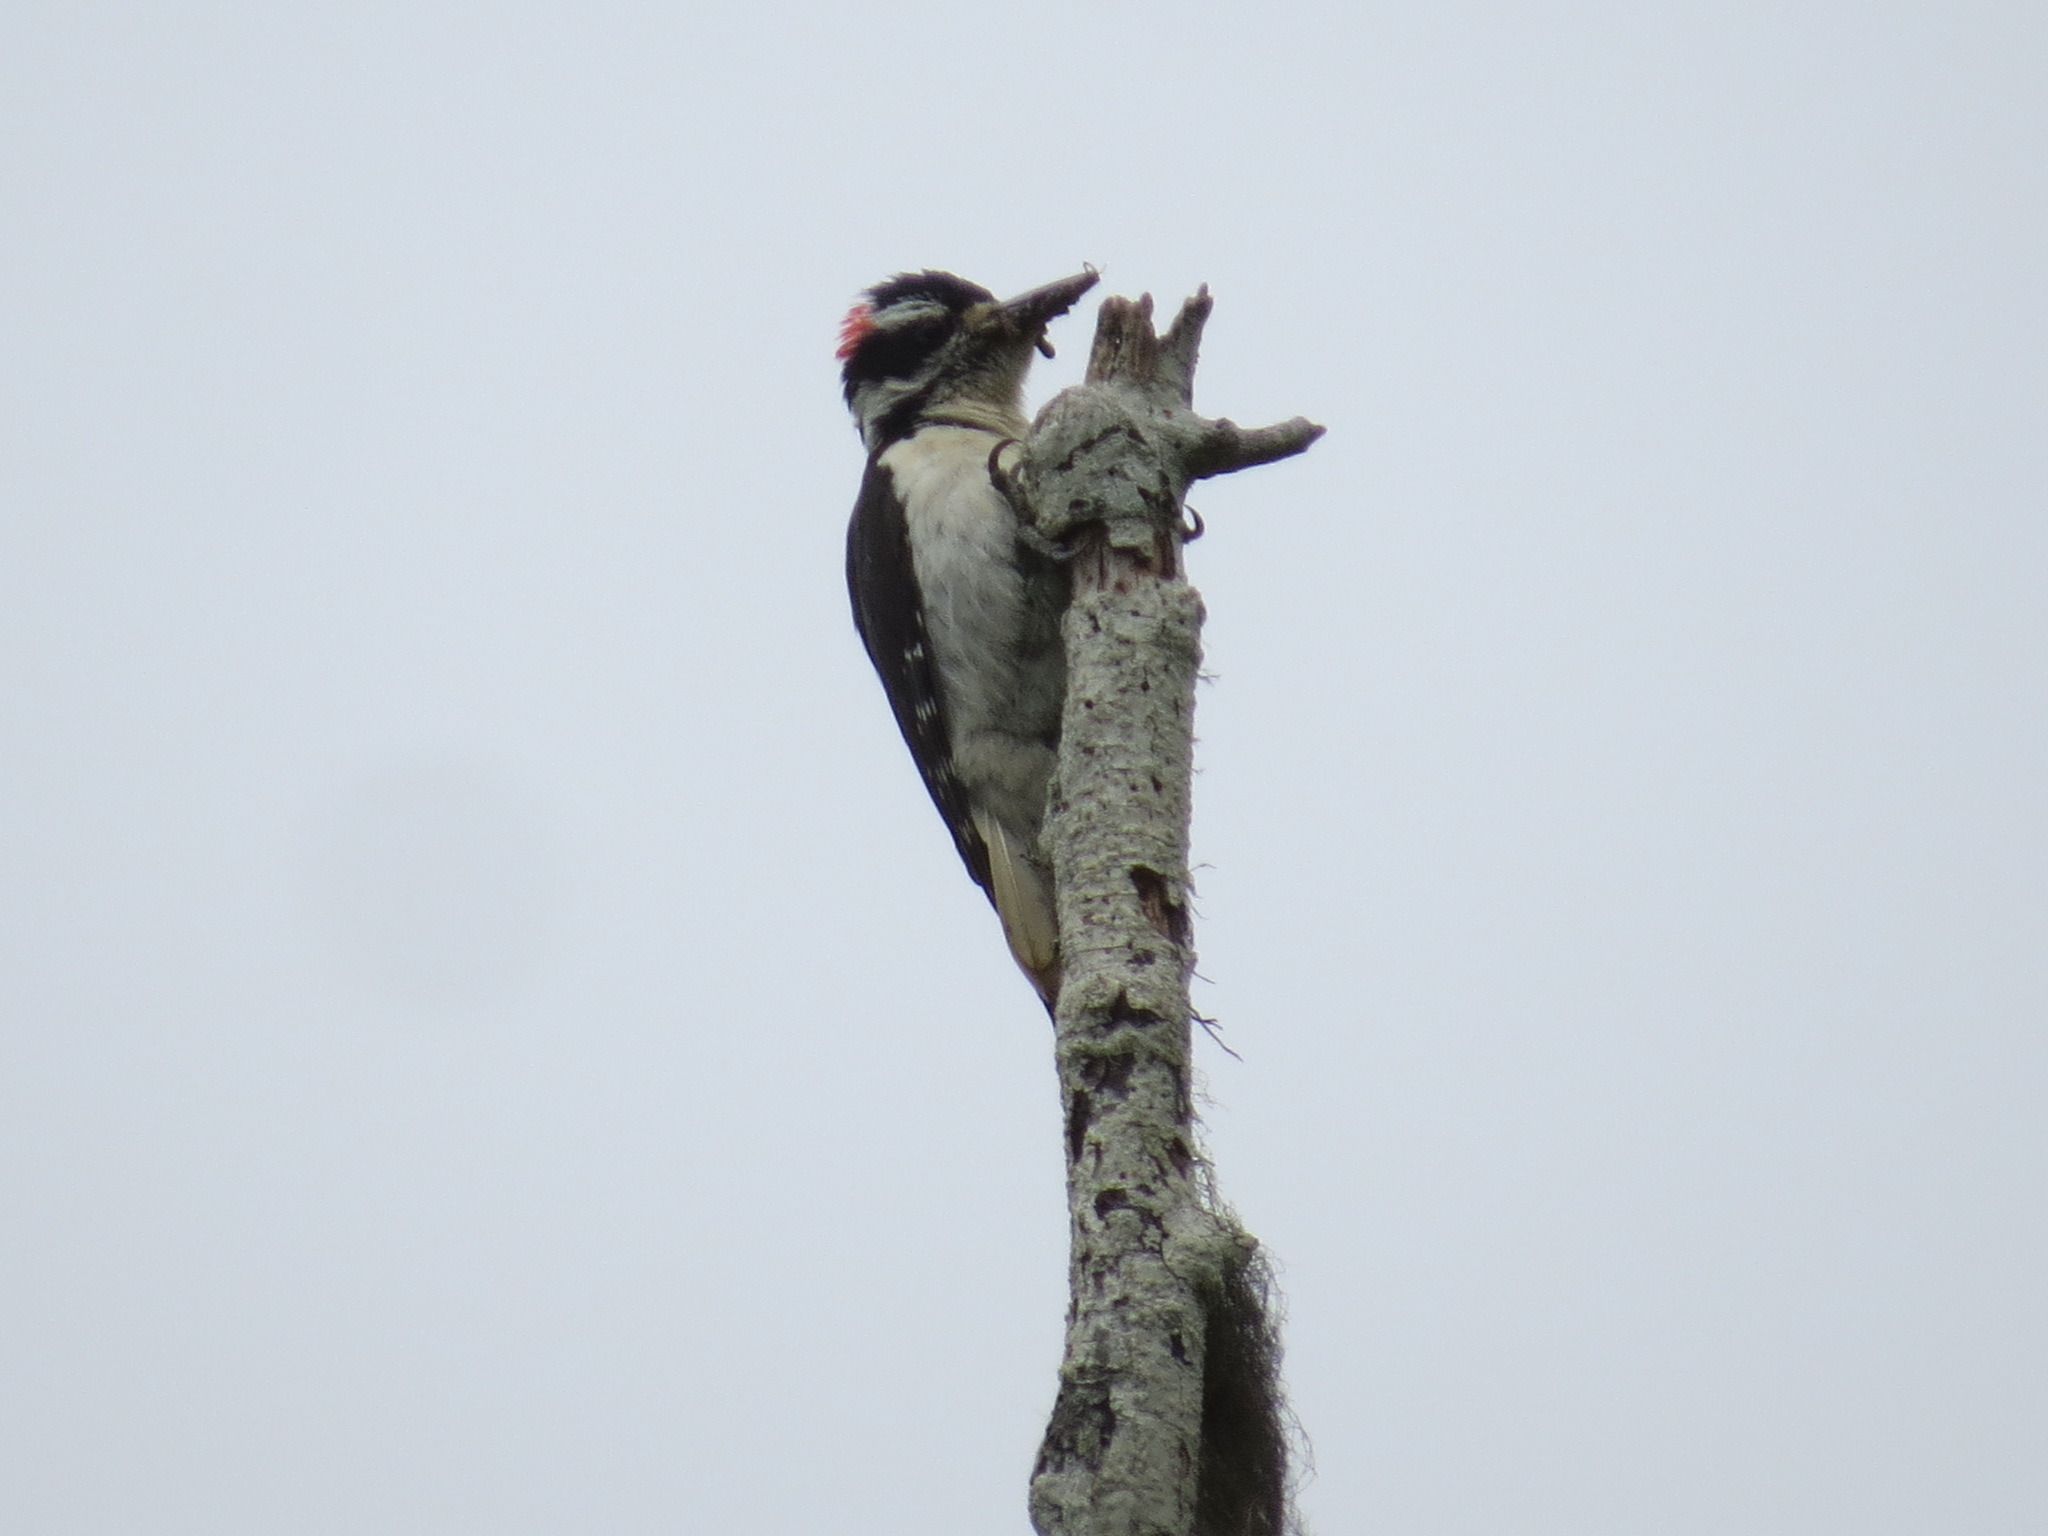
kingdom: Animalia
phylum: Chordata
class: Aves
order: Piciformes
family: Picidae
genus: Leuconotopicus
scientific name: Leuconotopicus villosus
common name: Hairy woodpecker
